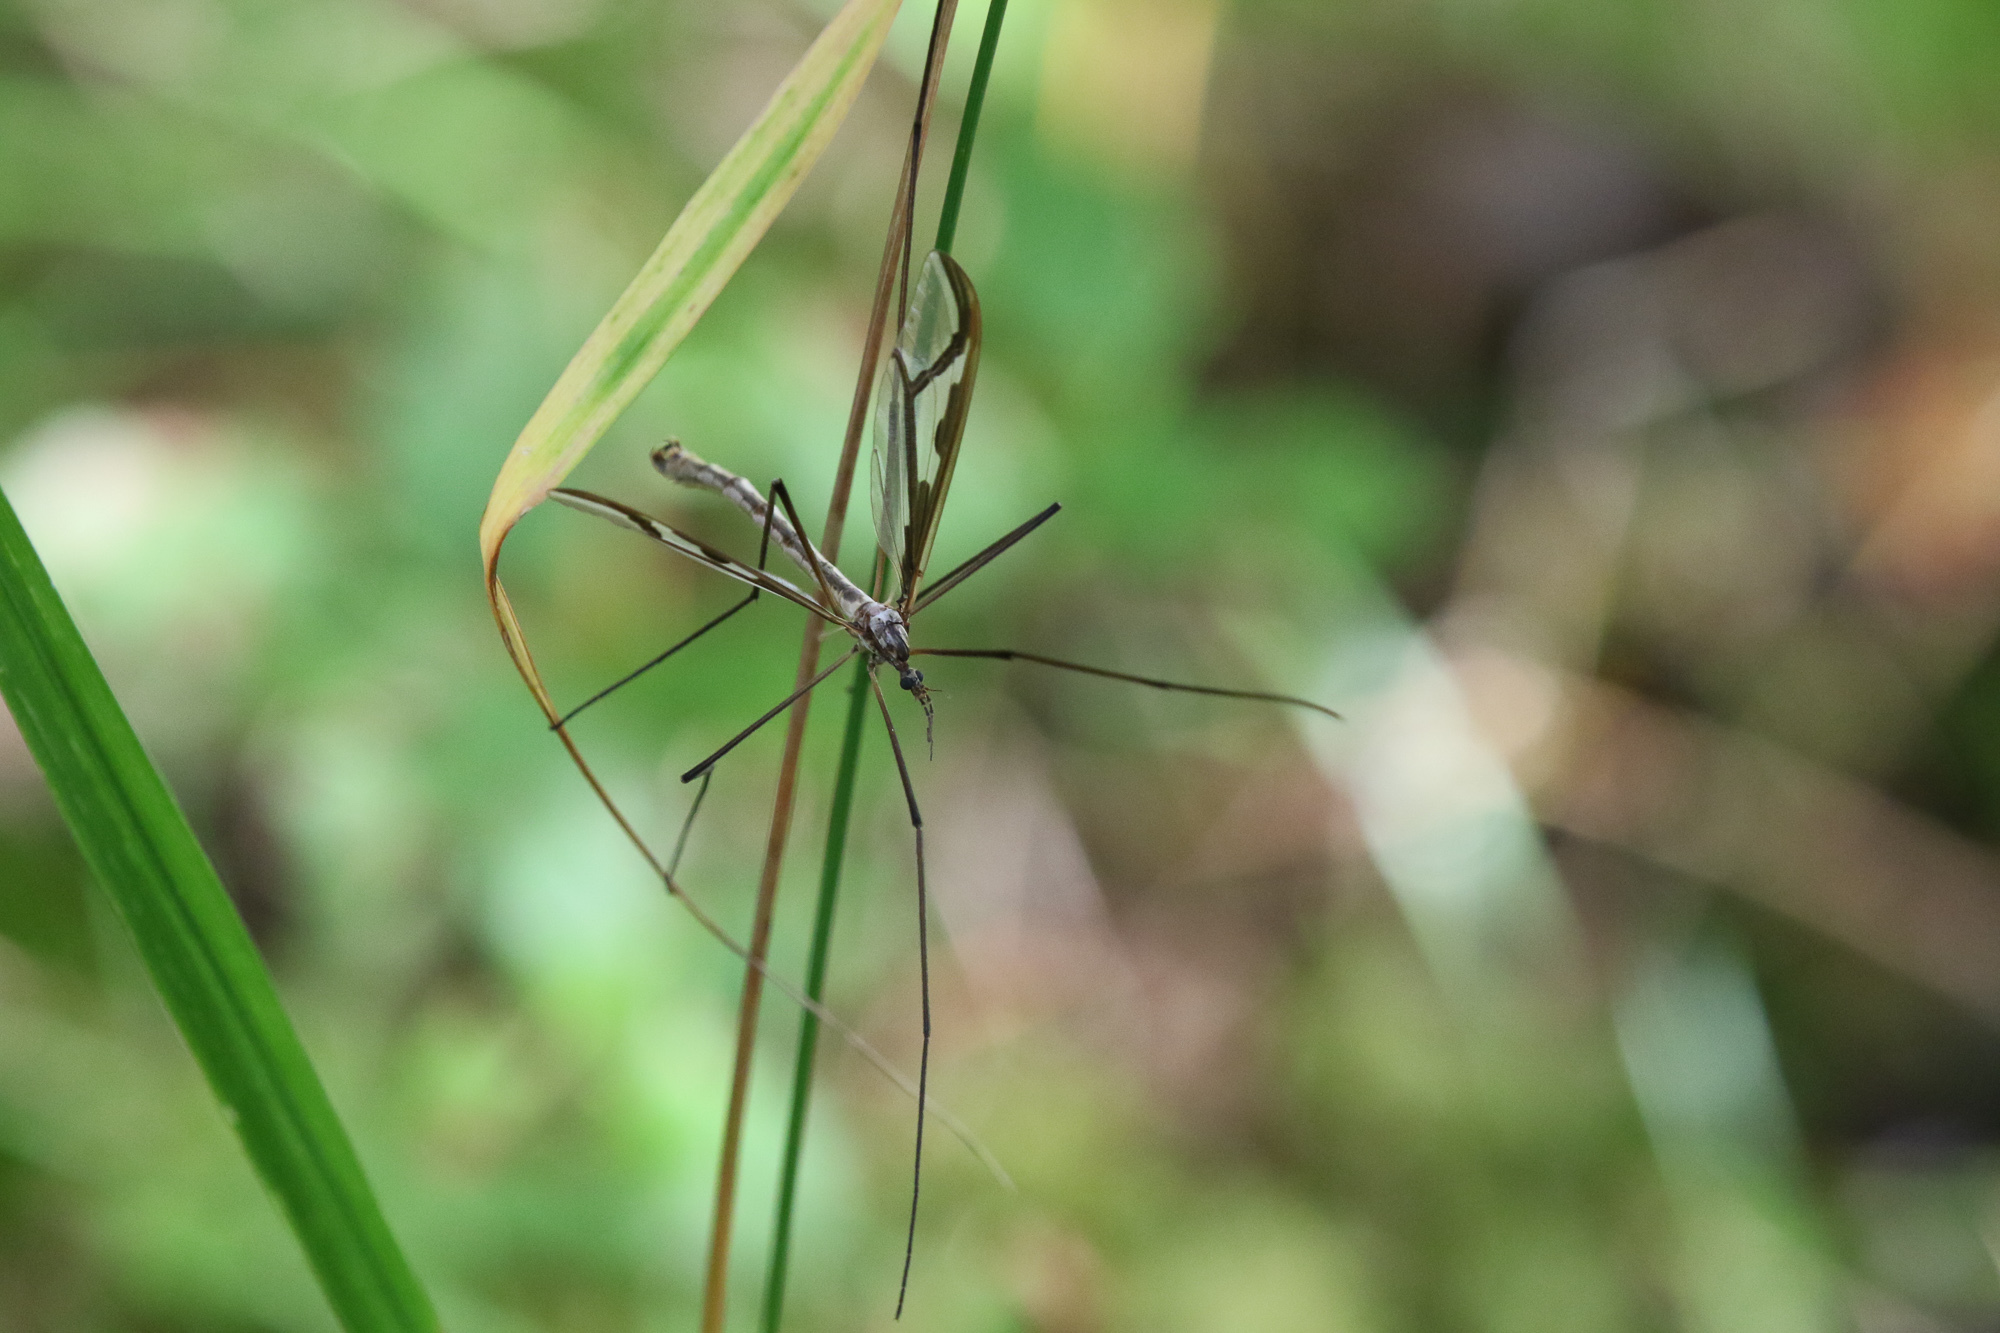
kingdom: Animalia
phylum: Arthropoda
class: Insecta
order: Diptera
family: Pediciidae
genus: Pedicia
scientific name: Pedicia rivosa
